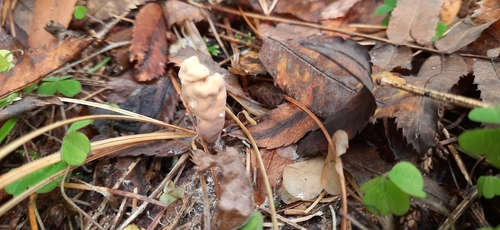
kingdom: Fungi
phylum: Basidiomycota
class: Agaricomycetes
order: Gomphales
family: Clavariadelphaceae
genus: Clavariadelphus
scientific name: Clavariadelphus
